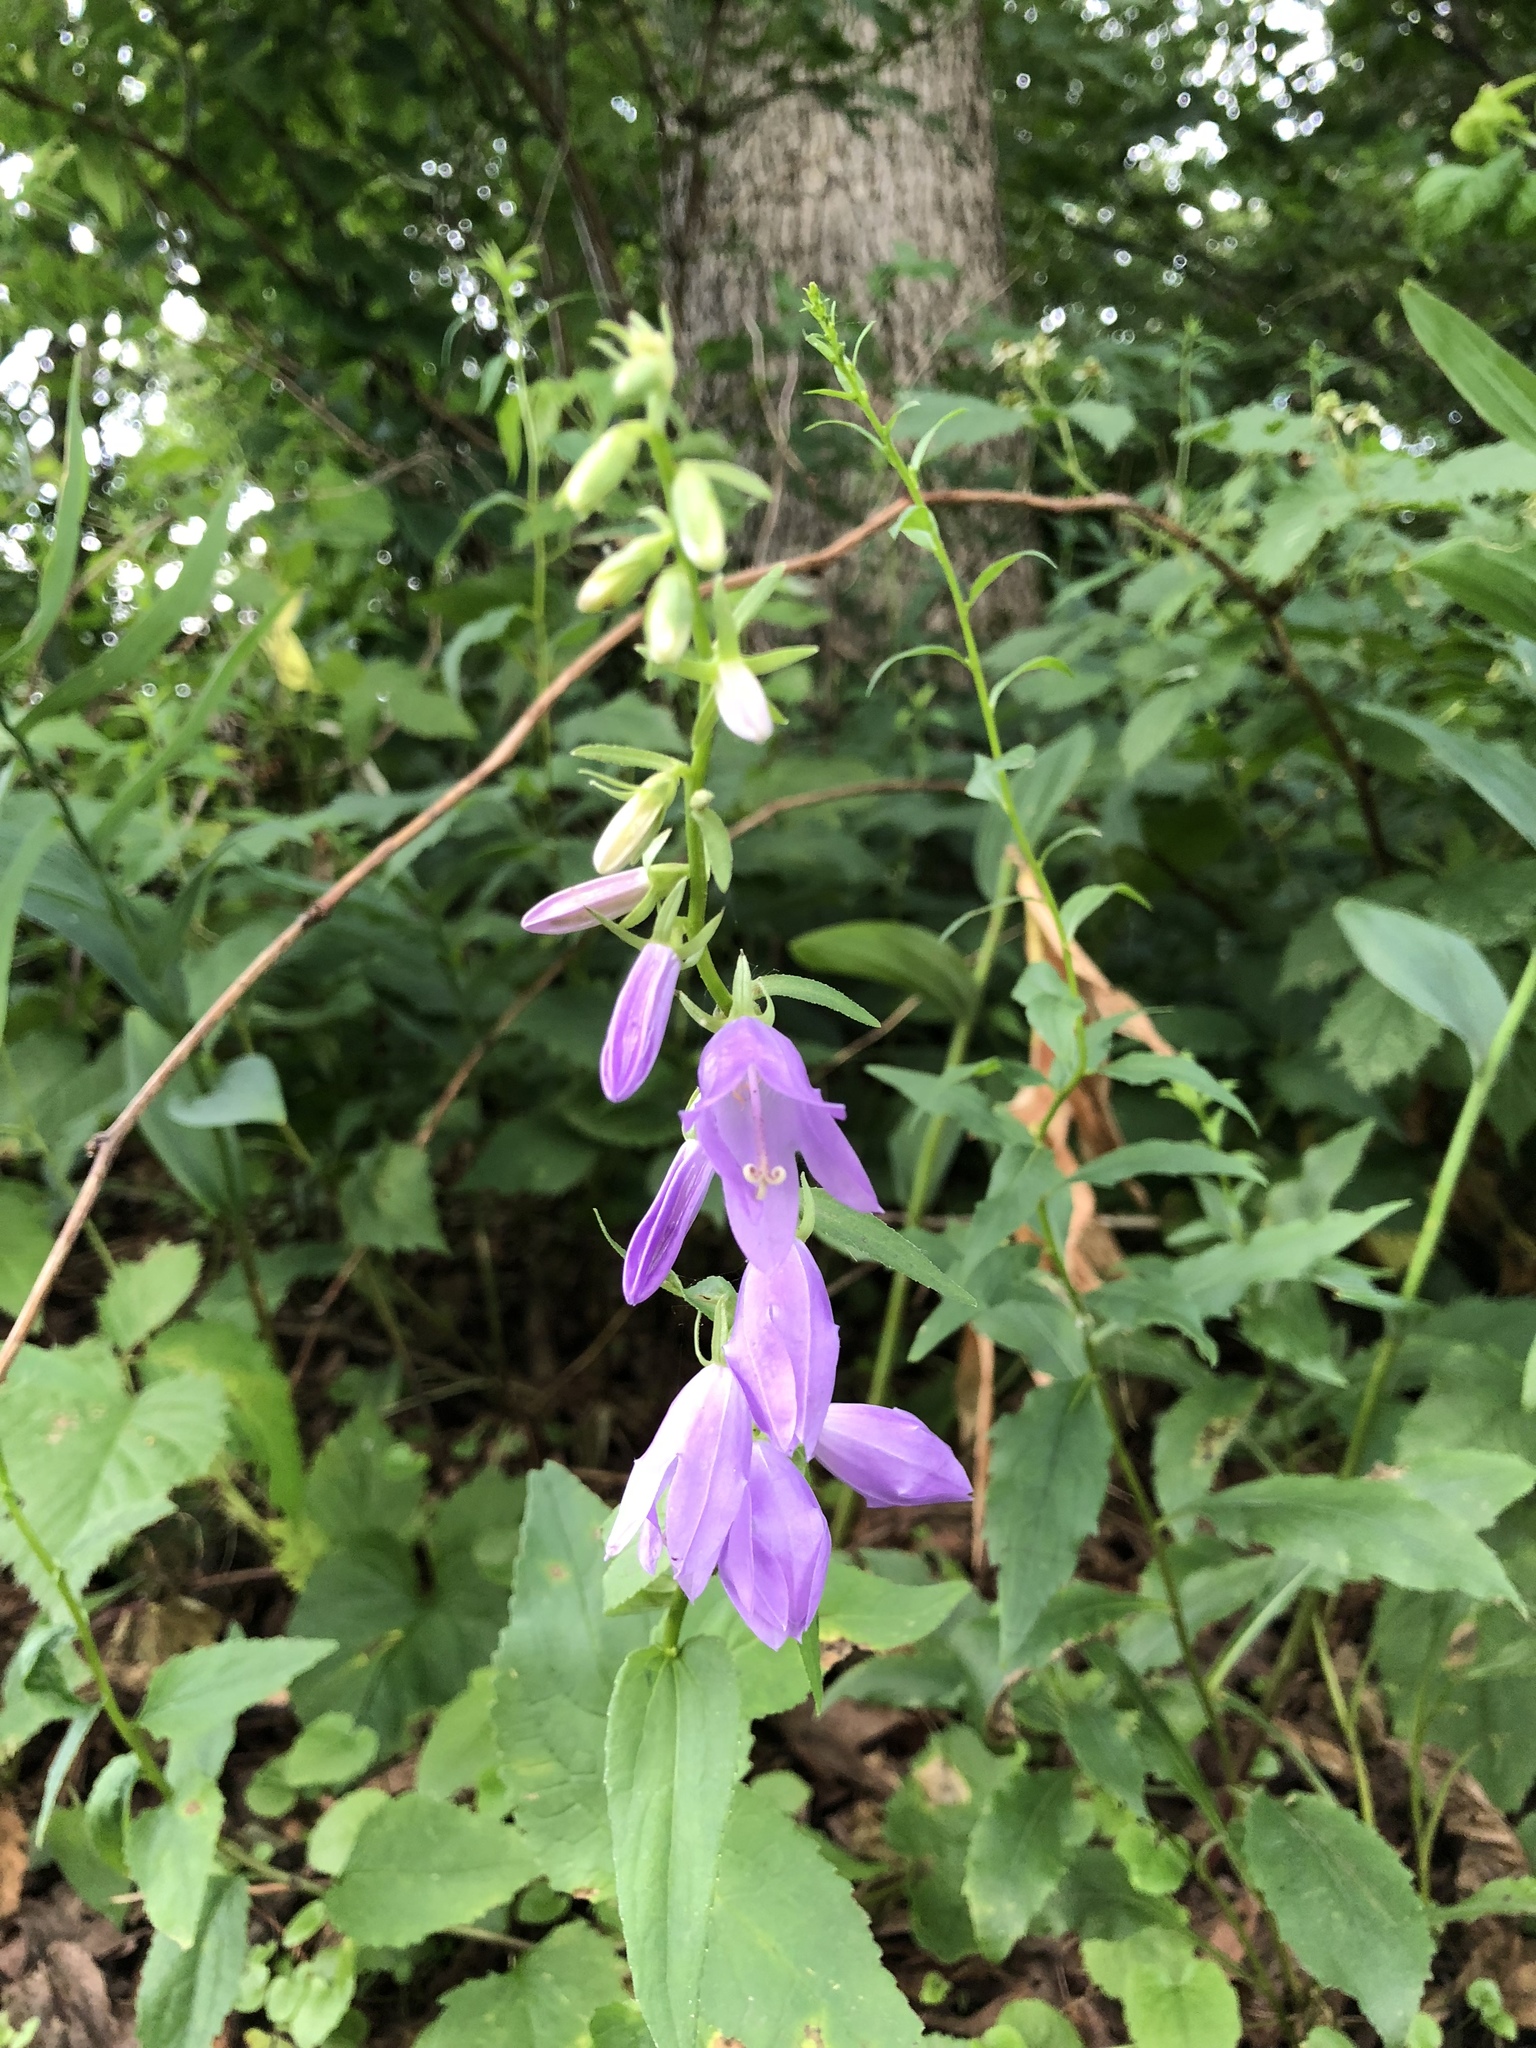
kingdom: Plantae
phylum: Tracheophyta
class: Magnoliopsida
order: Asterales
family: Campanulaceae
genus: Campanula
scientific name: Campanula rapunculoides
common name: Creeping bellflower
